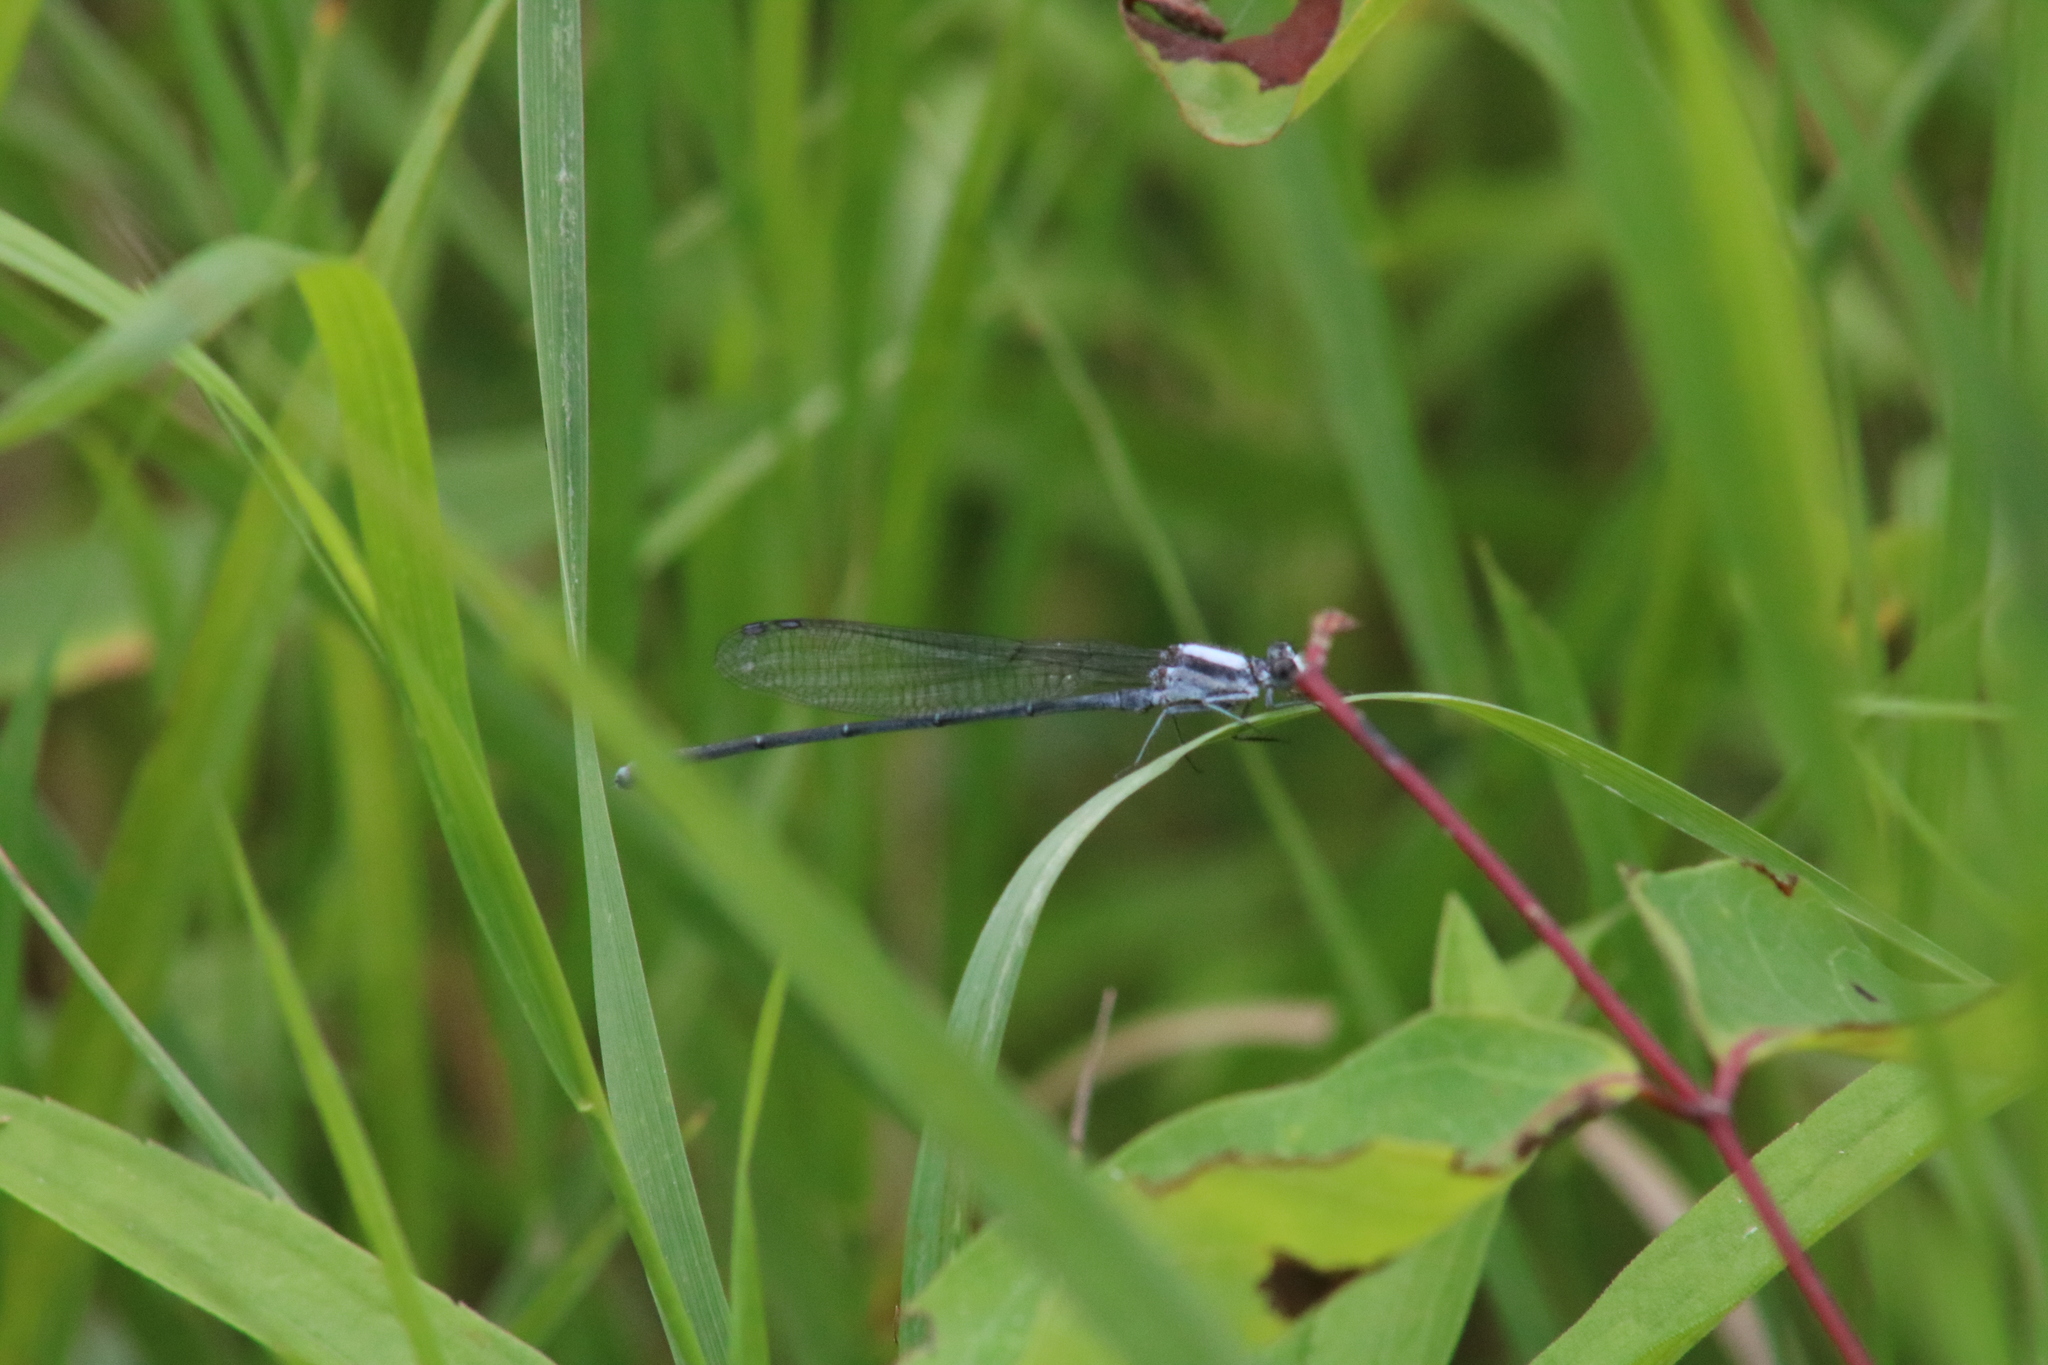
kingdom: Animalia
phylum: Arthropoda
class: Insecta
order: Odonata
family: Coenagrionidae
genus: Argia
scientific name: Argia moesta
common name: Powdered dancer
